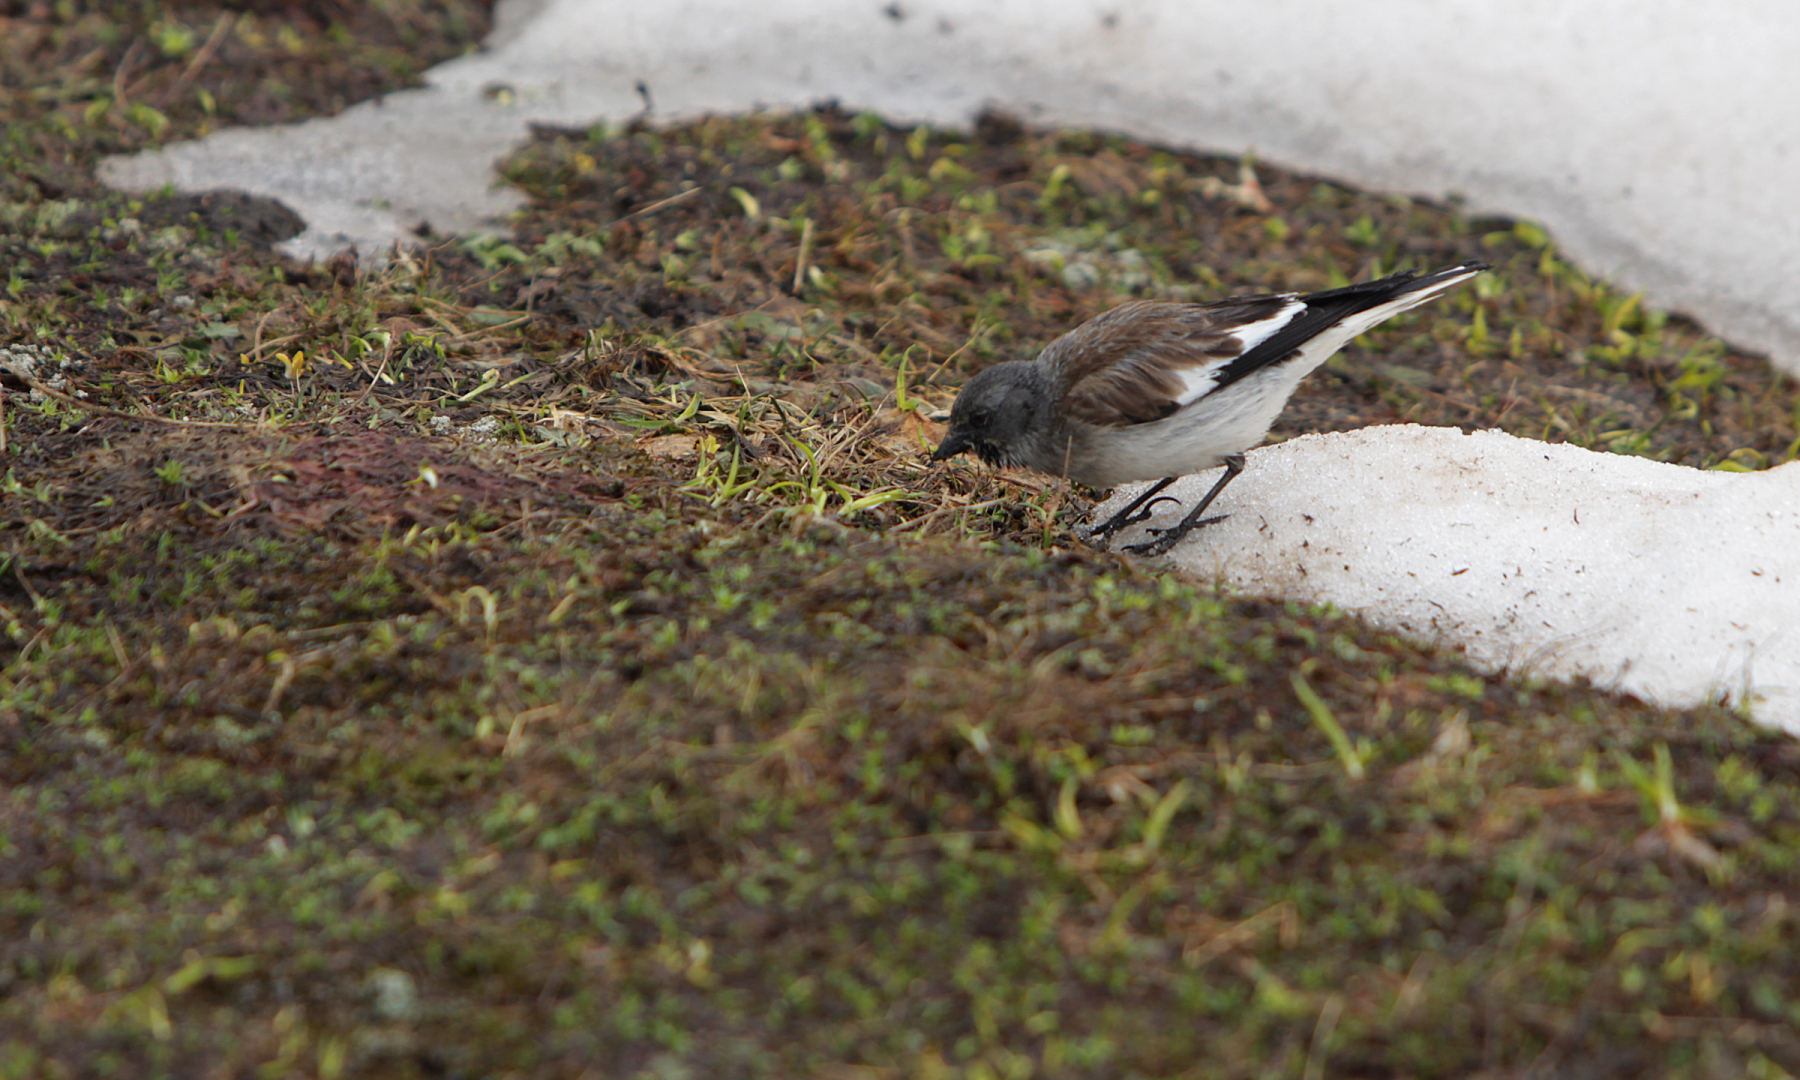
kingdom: Animalia
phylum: Chordata
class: Aves
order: Passeriformes
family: Passeridae
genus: Montifringilla
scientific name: Montifringilla nivalis
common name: White-winged snowfinch
